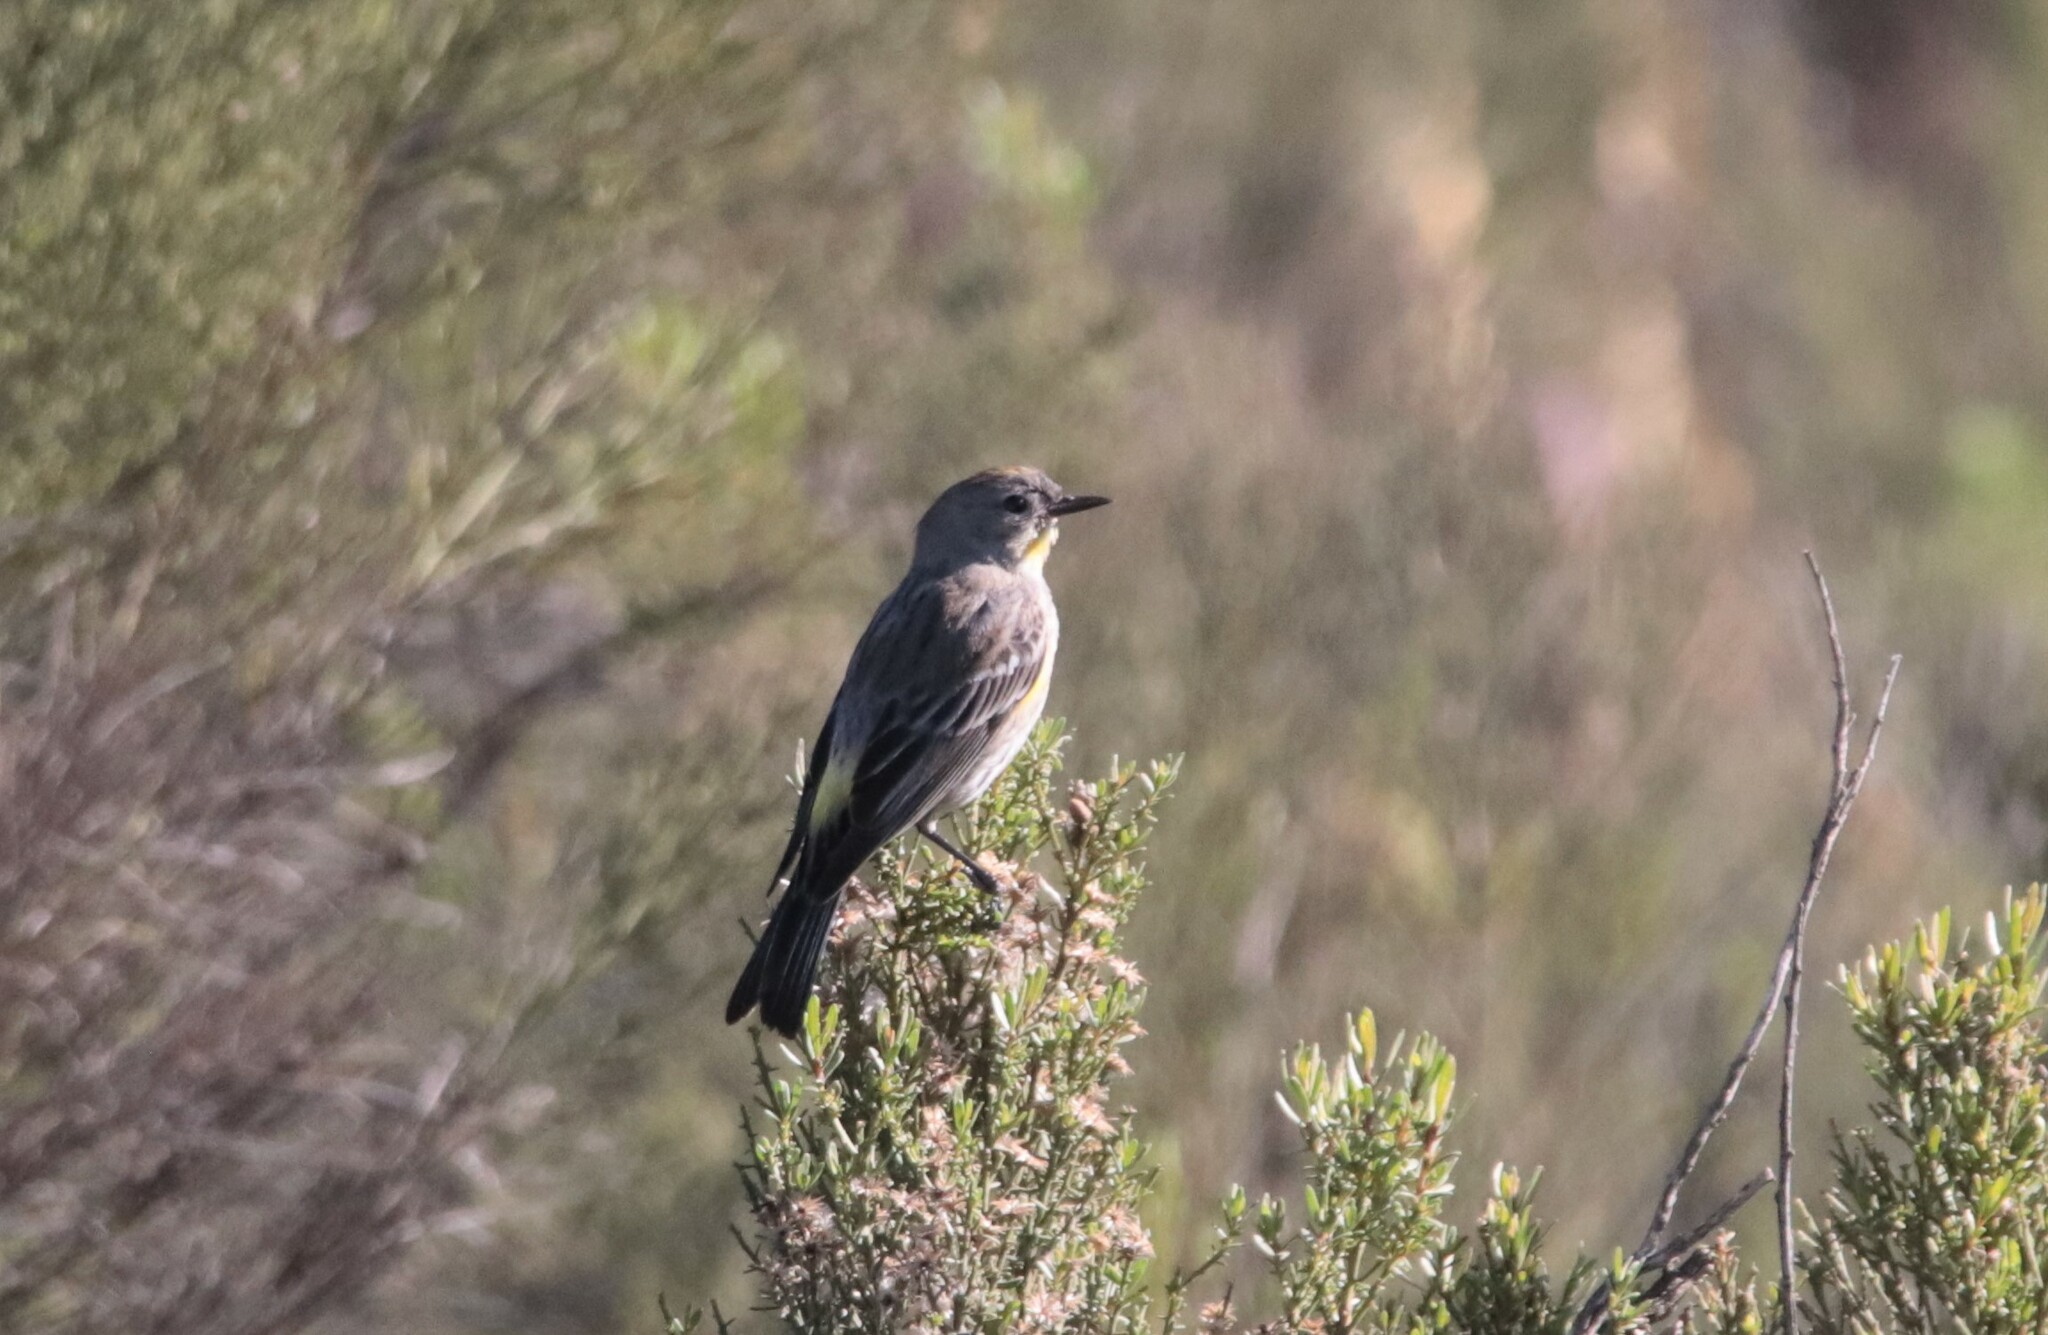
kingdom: Animalia
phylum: Chordata
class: Aves
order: Passeriformes
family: Parulidae
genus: Setophaga
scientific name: Setophaga auduboni
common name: Audubon's warbler
